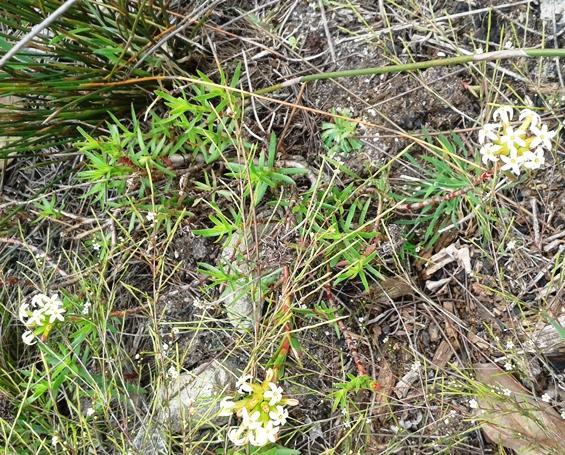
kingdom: Plantae
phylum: Tracheophyta
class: Magnoliopsida
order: Saxifragales
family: Crassulaceae
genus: Crassula
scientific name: Crassula fascicularis
